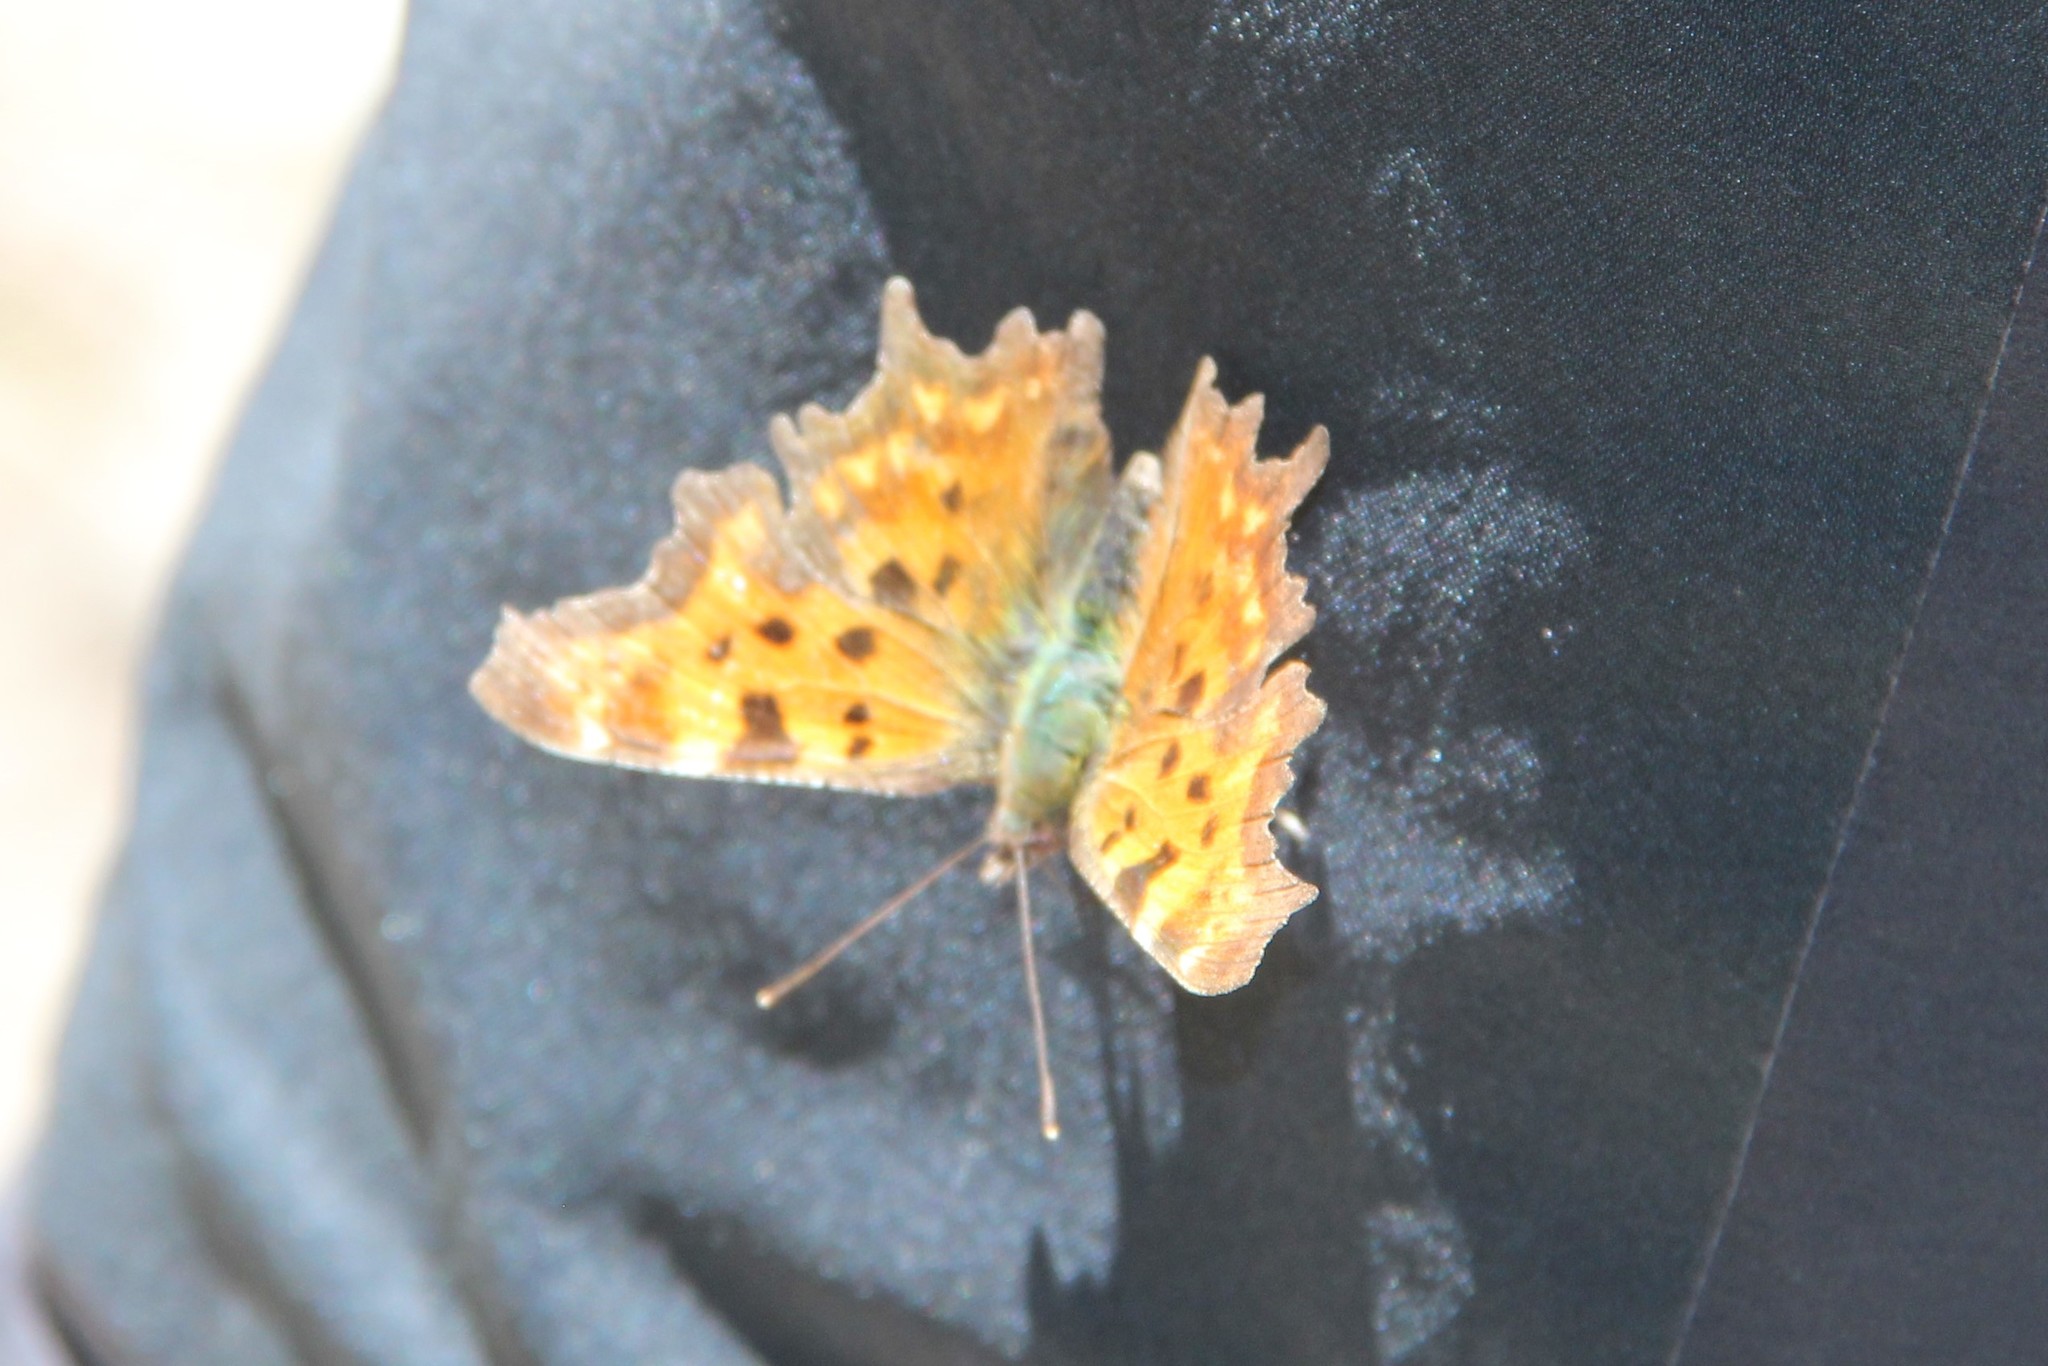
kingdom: Animalia
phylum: Arthropoda
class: Insecta
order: Lepidoptera
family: Nymphalidae
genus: Polygonia
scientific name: Polygonia c-album
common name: Comma
